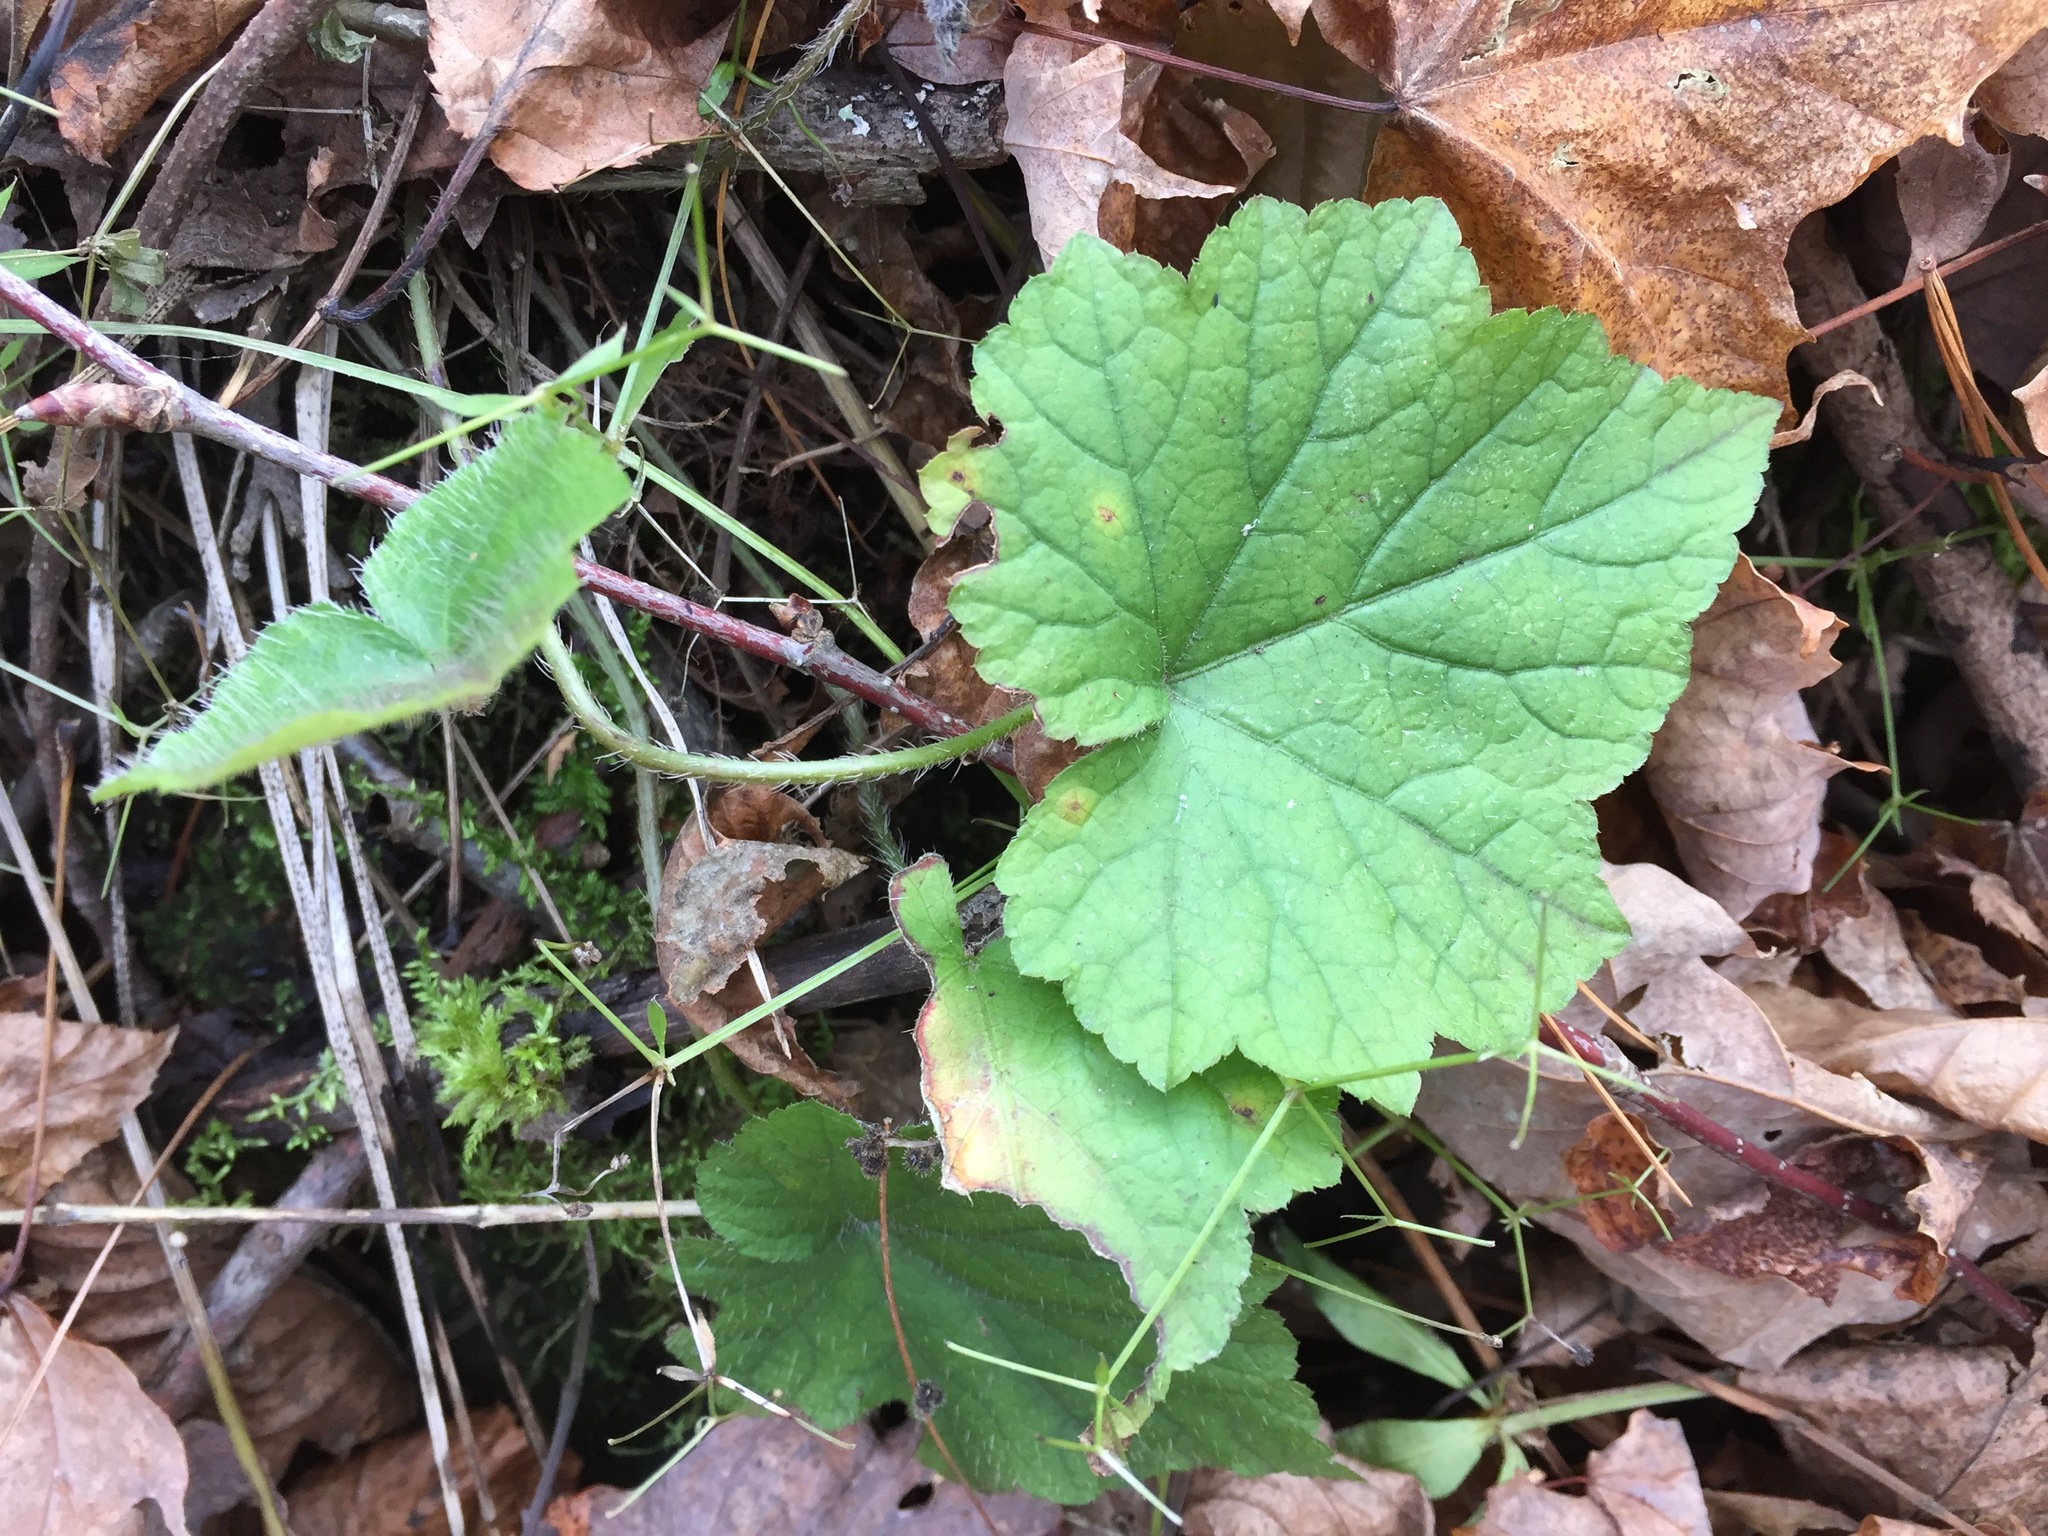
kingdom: Plantae
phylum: Tracheophyta
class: Magnoliopsida
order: Saxifragales
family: Saxifragaceae
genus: Mitella
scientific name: Mitella diphylla
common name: Coolwort
